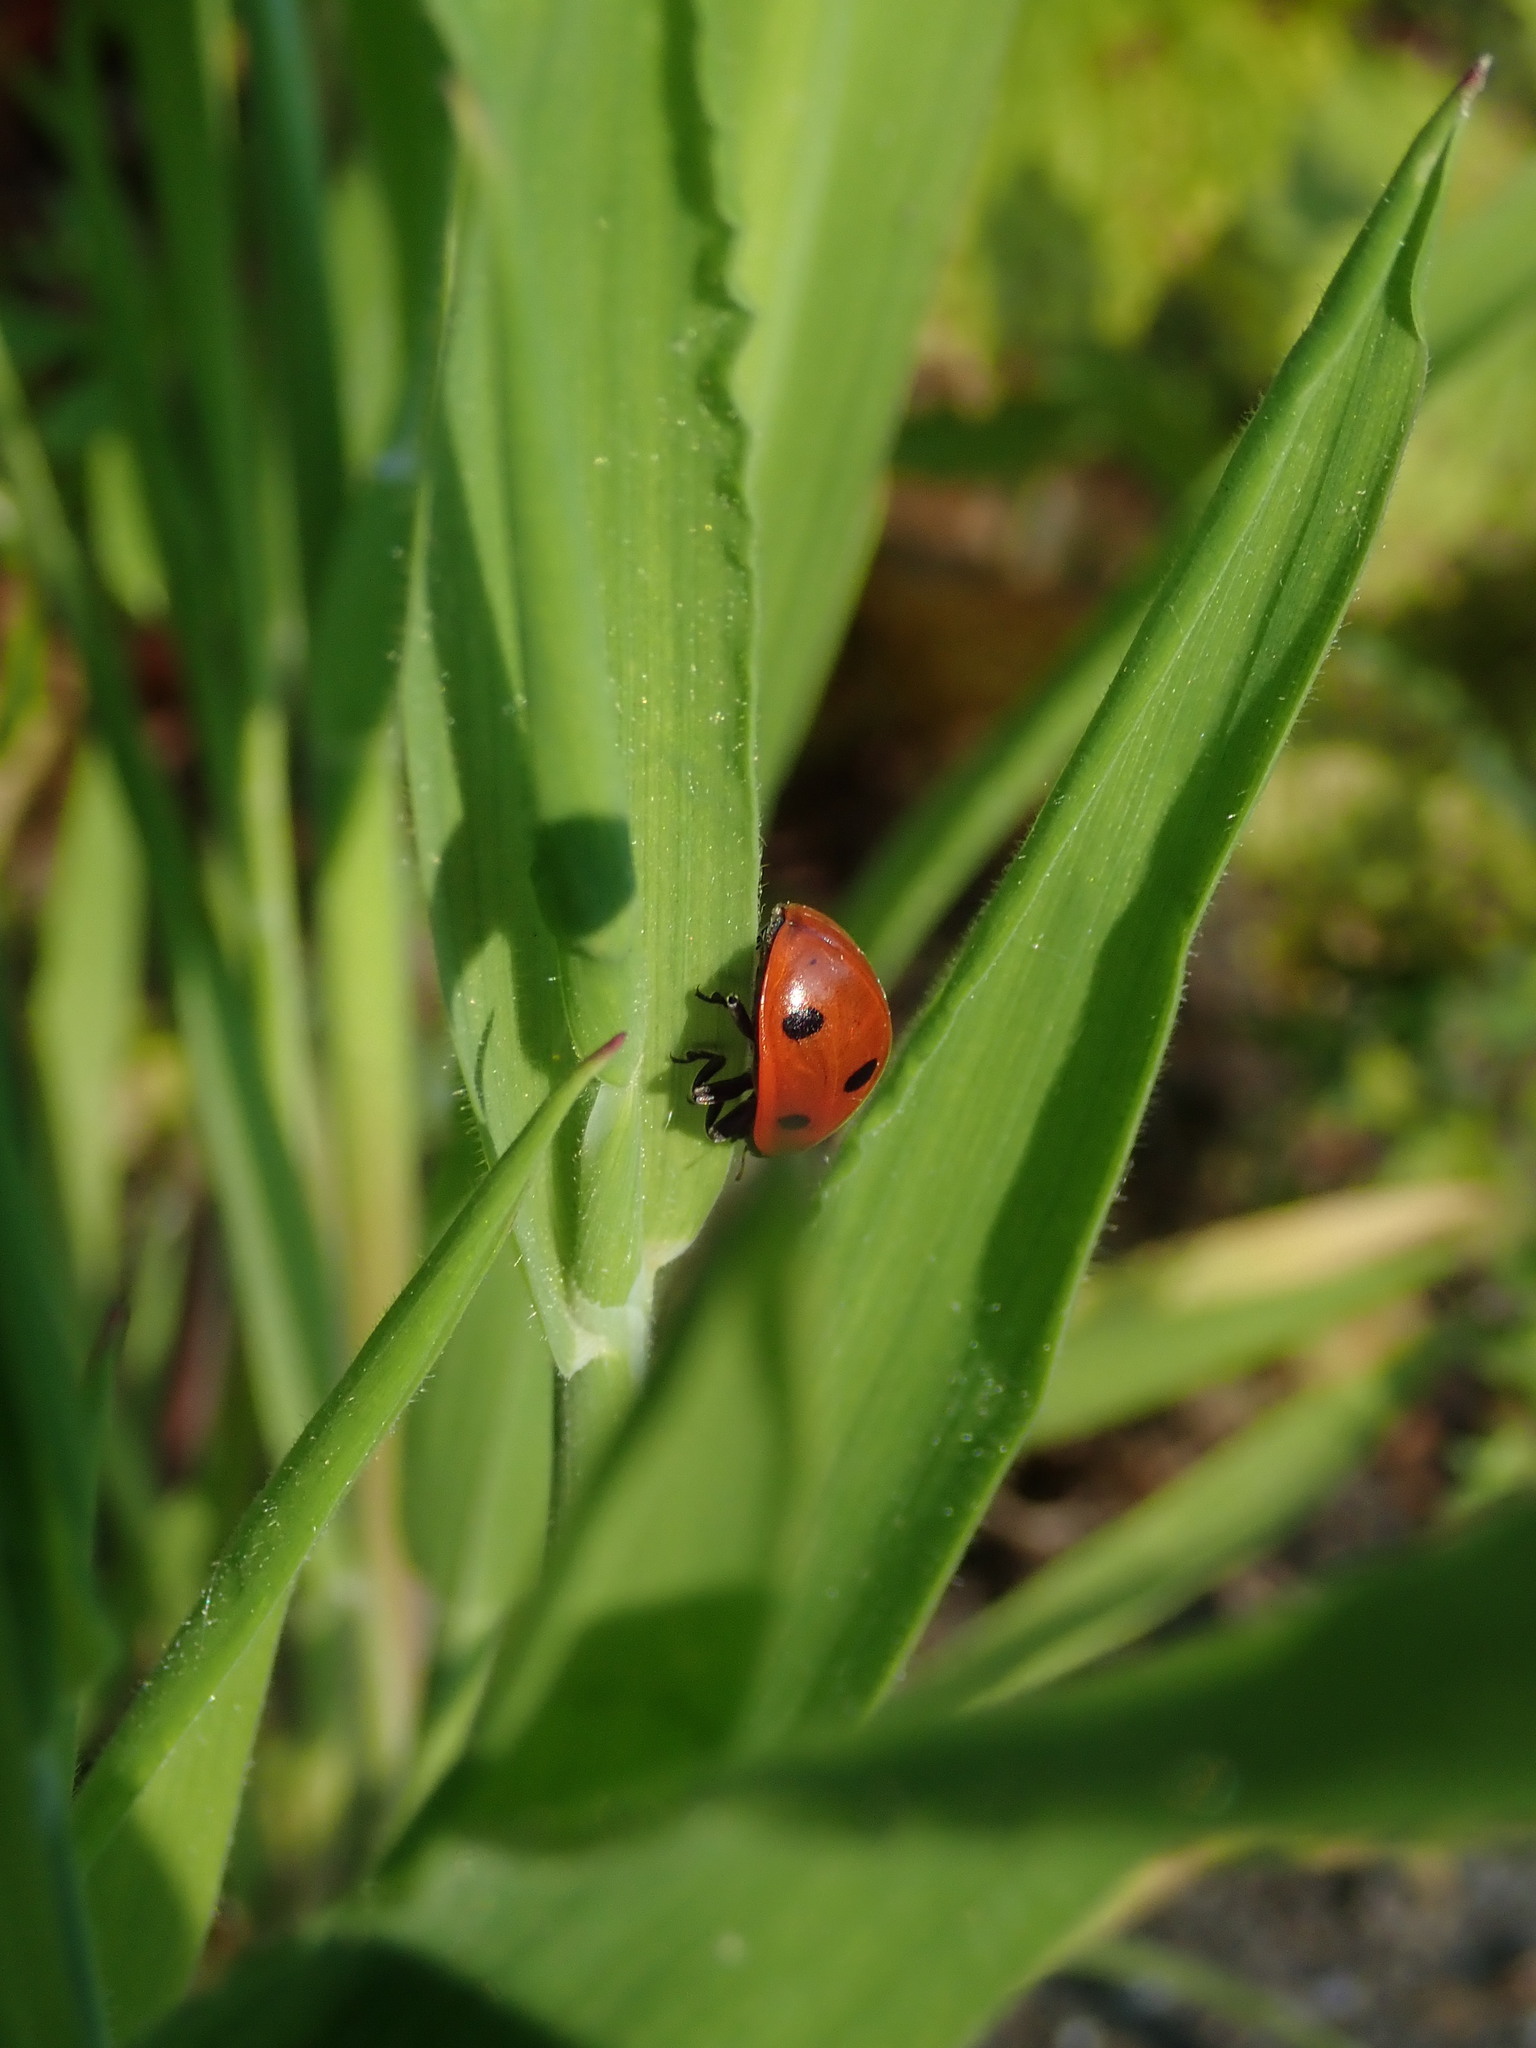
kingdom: Animalia
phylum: Arthropoda
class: Insecta
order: Coleoptera
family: Coccinellidae
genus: Coccinella
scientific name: Coccinella septempunctata
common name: Sevenspotted lady beetle
